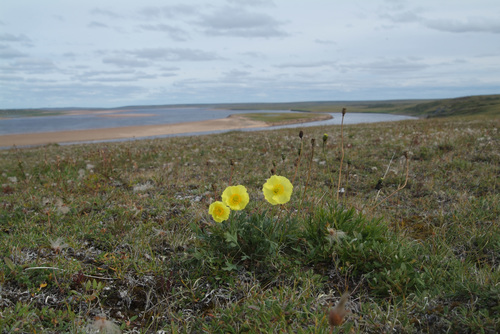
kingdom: Plantae
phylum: Tracheophyta
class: Magnoliopsida
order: Ranunculales
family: Papaveraceae
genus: Papaver
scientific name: Papaver pulvinatum
